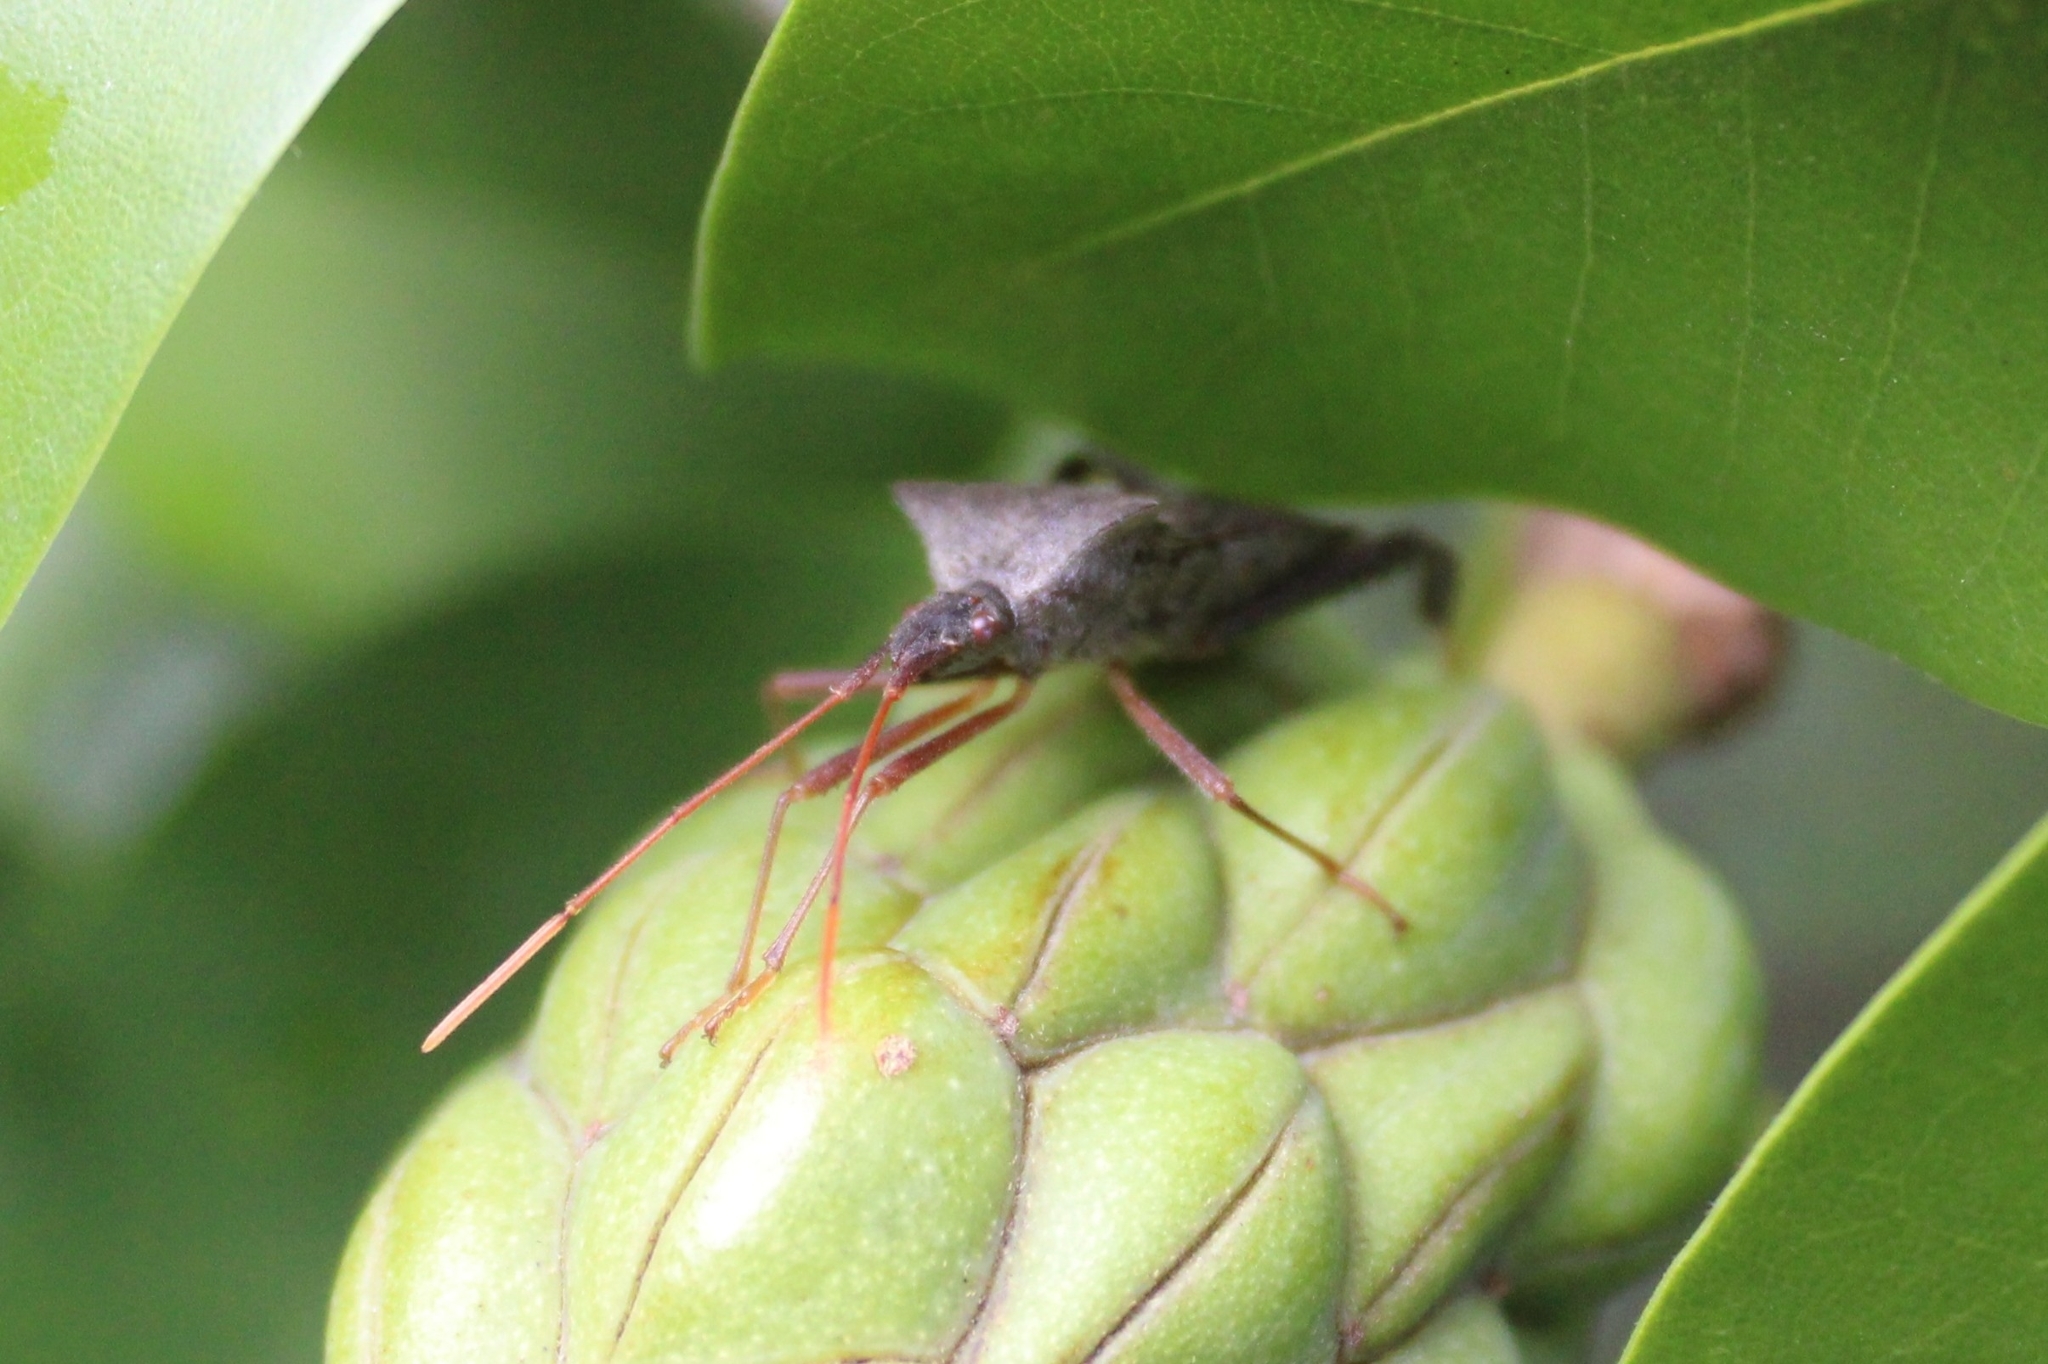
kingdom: Animalia
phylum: Arthropoda
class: Insecta
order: Hemiptera
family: Coreidae
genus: Leptoglossus
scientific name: Leptoglossus fulvicornis
